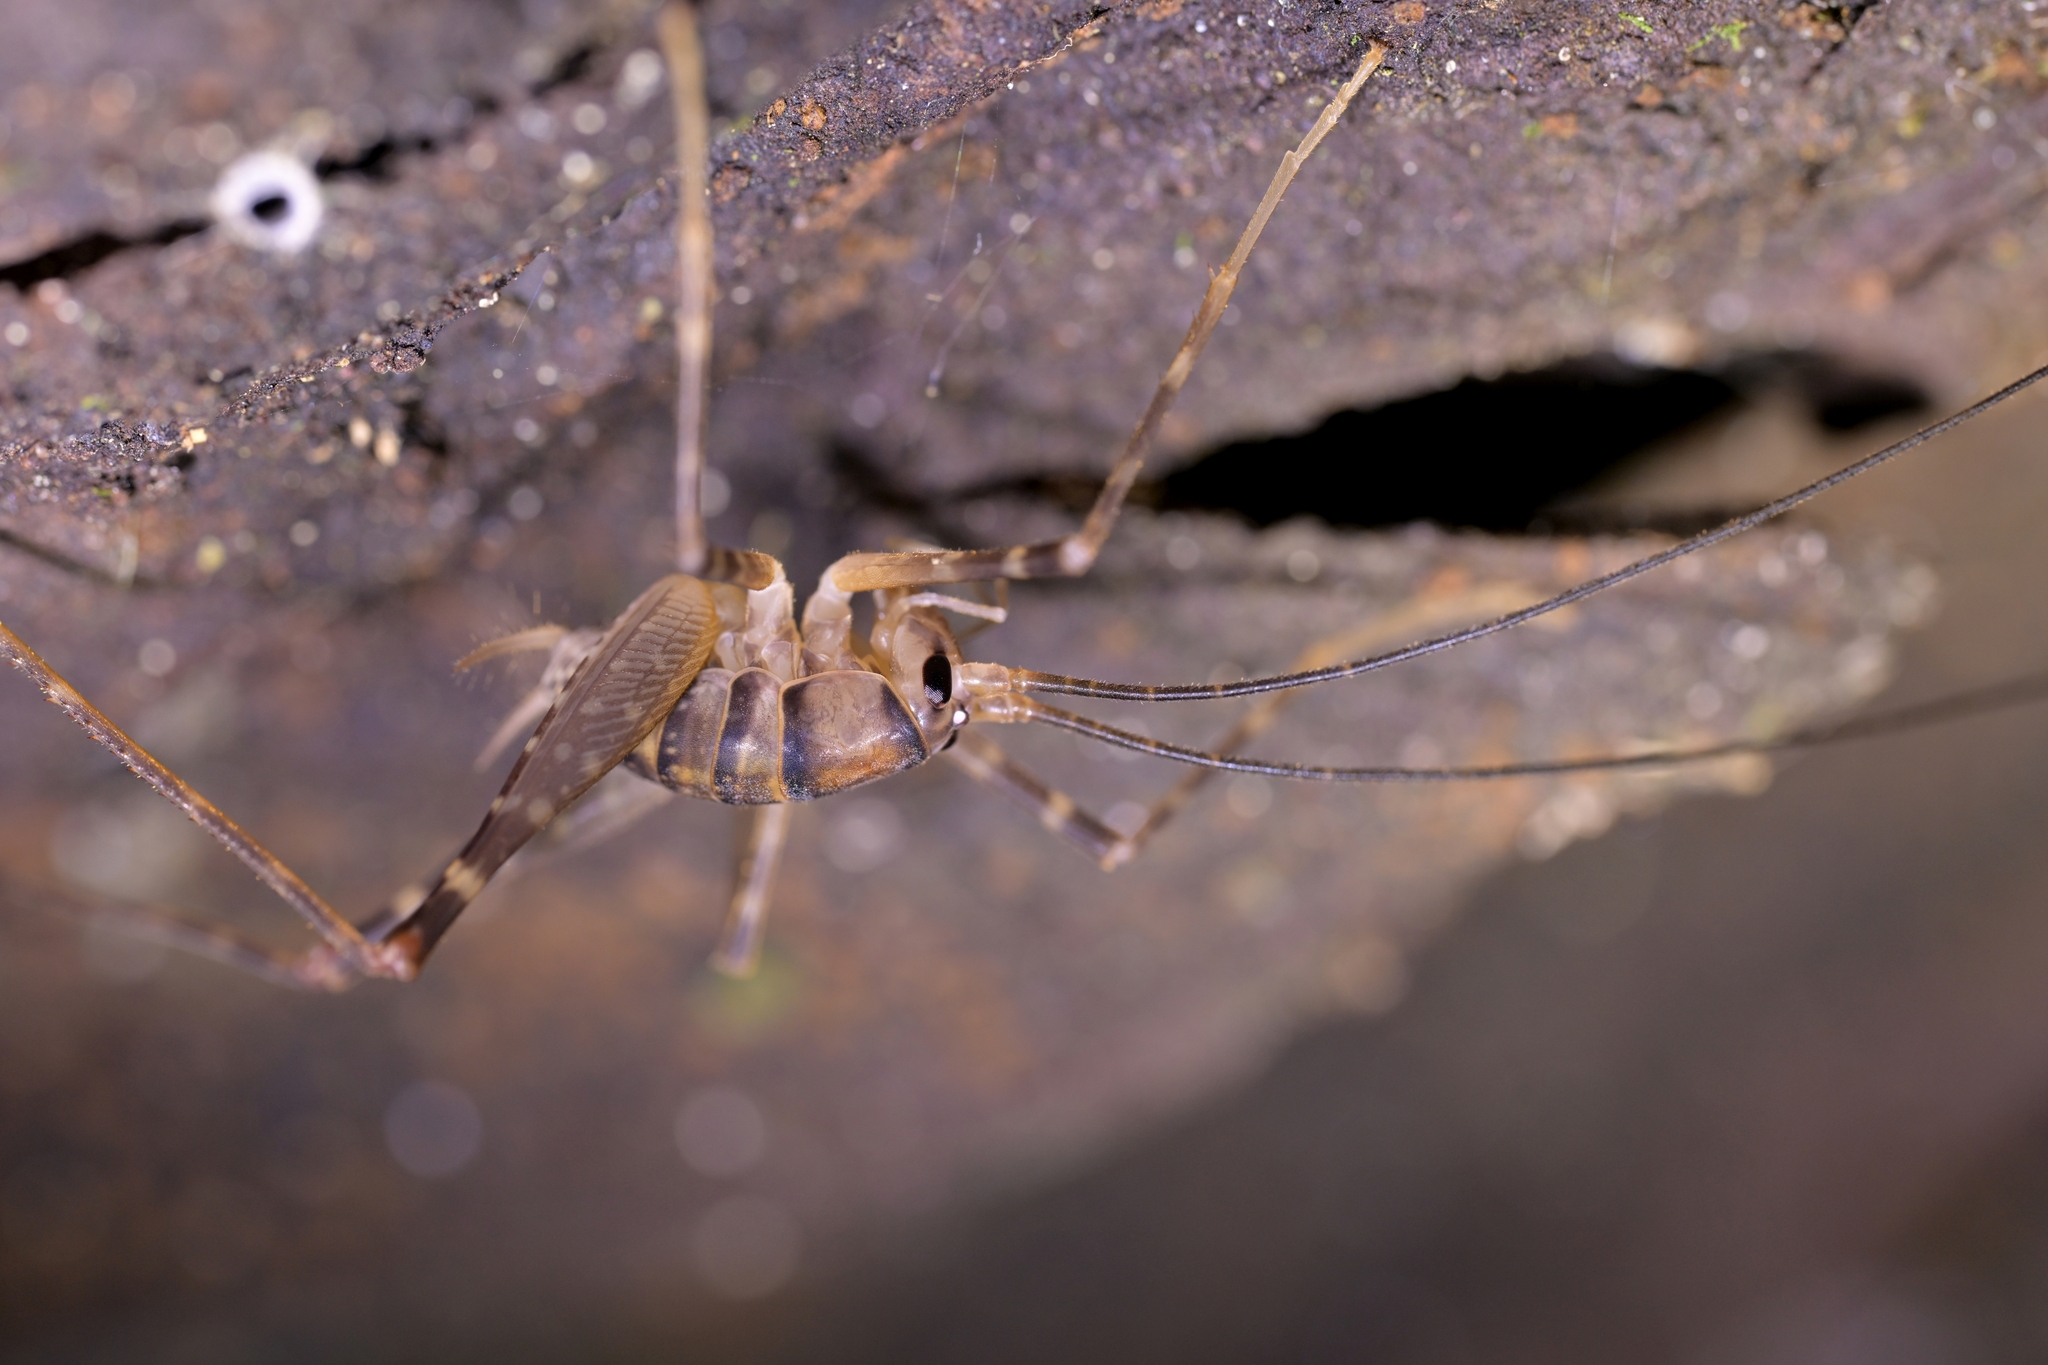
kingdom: Animalia
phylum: Arthropoda
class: Insecta
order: Orthoptera
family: Rhaphidophoridae
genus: Pachyrhamma
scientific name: Pachyrhamma edwardsii
